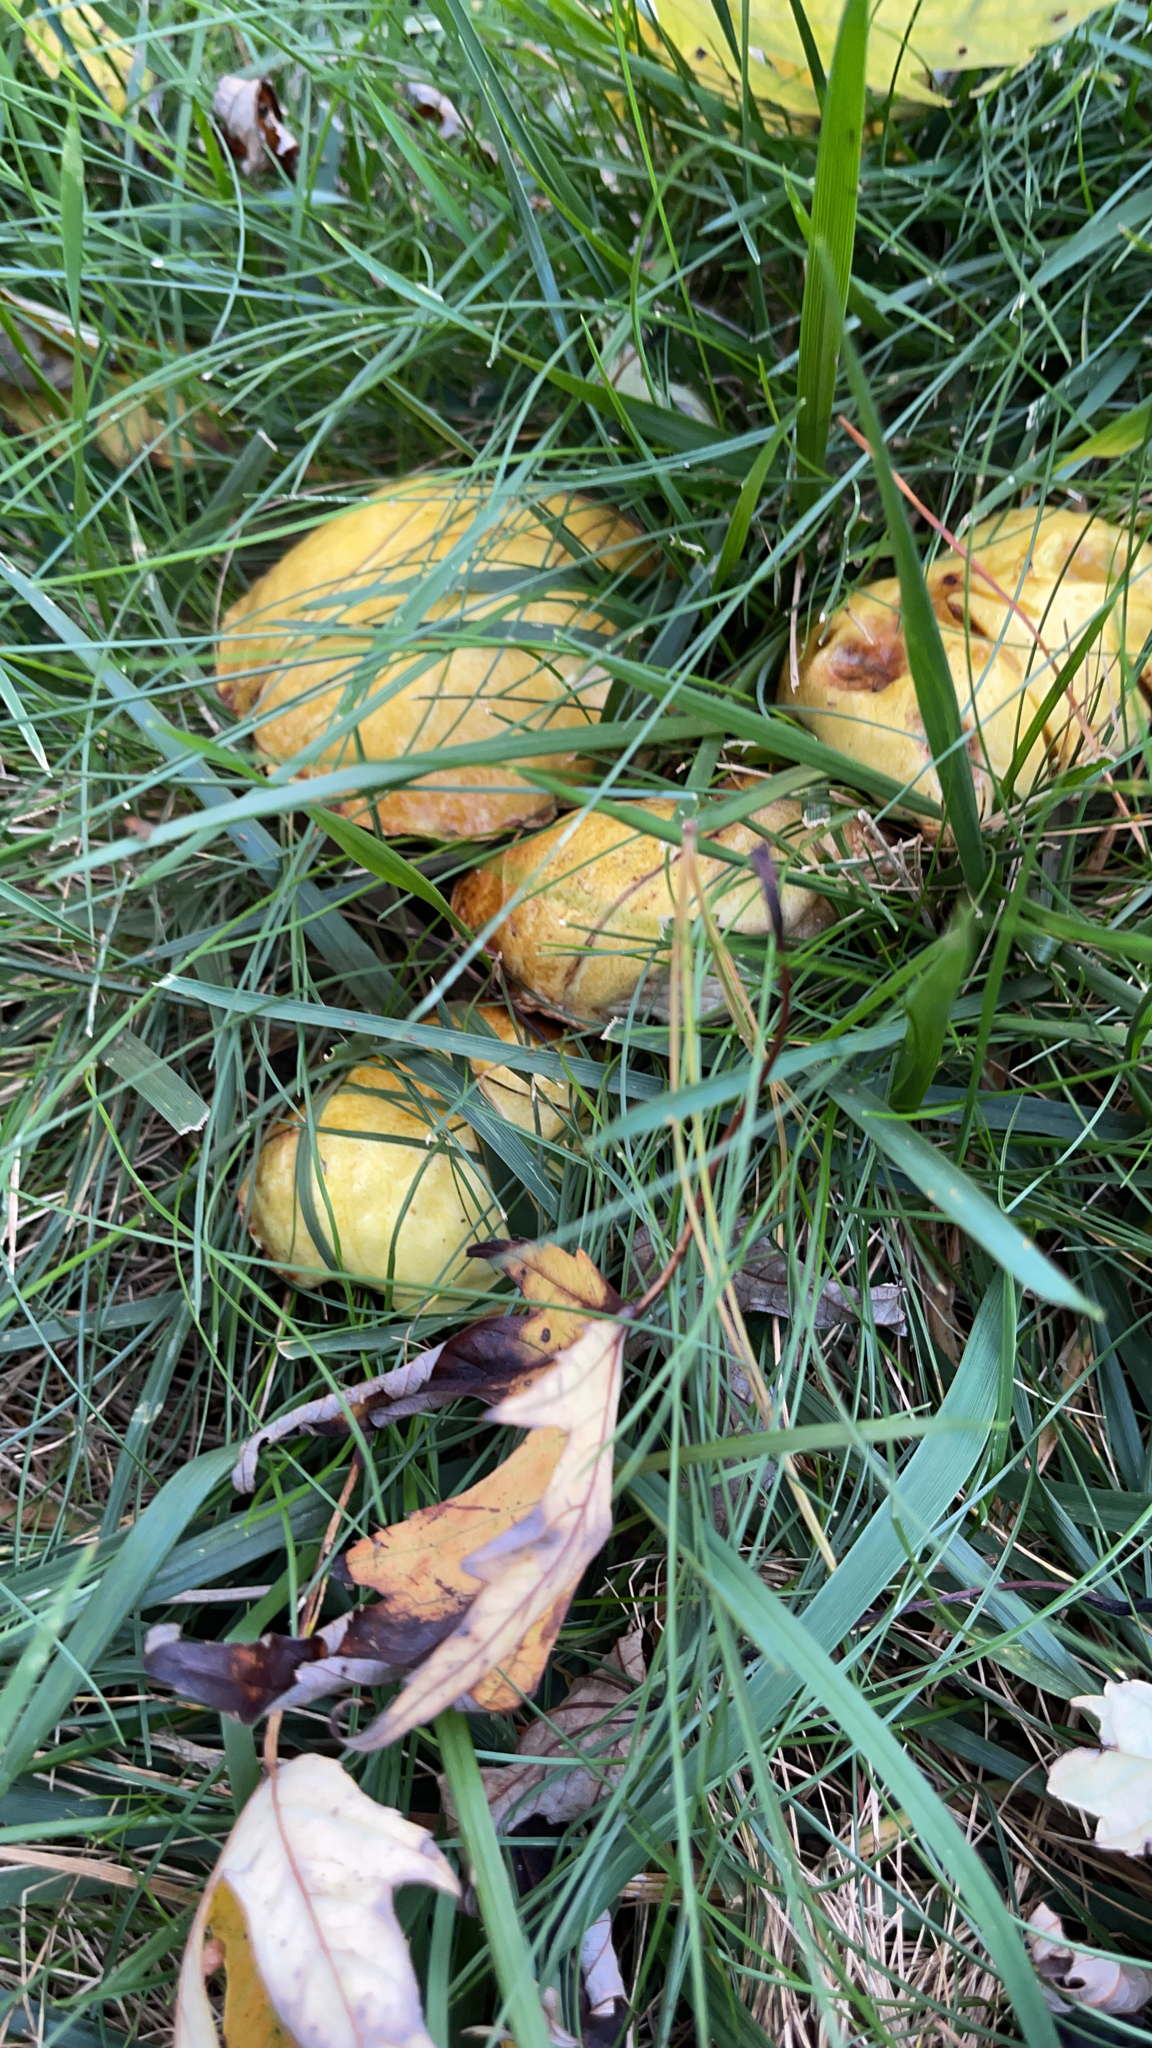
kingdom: Fungi
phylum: Basidiomycota
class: Agaricomycetes
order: Boletales
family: Suillaceae
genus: Suillus
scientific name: Suillus americanus
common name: Chicken fat mushroom
